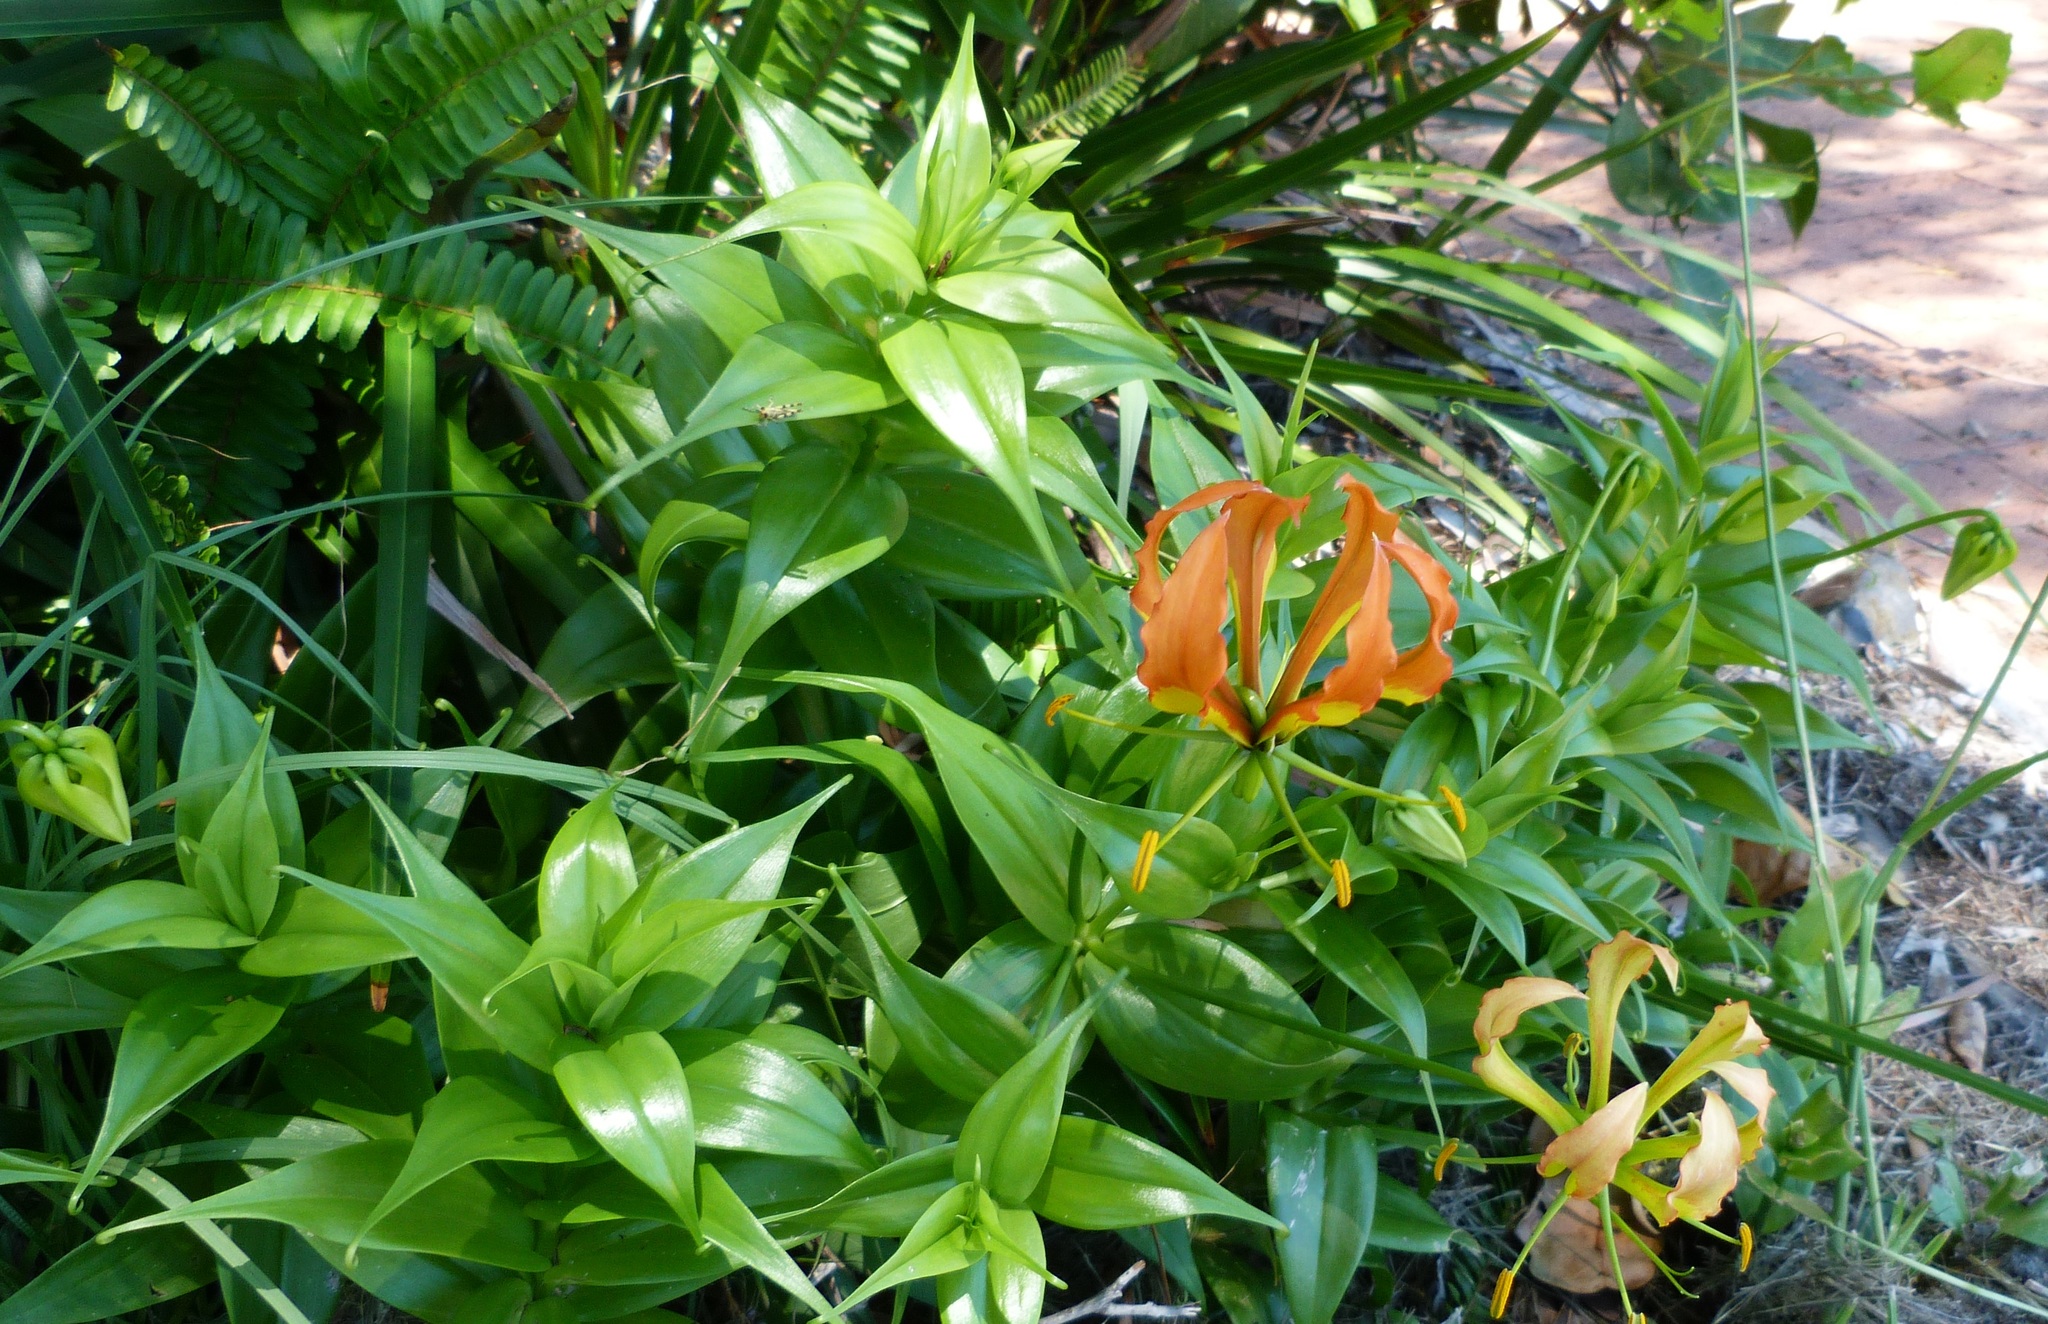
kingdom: Plantae
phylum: Tracheophyta
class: Liliopsida
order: Liliales
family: Colchicaceae
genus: Gloriosa
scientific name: Gloriosa superba
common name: Flame lily
